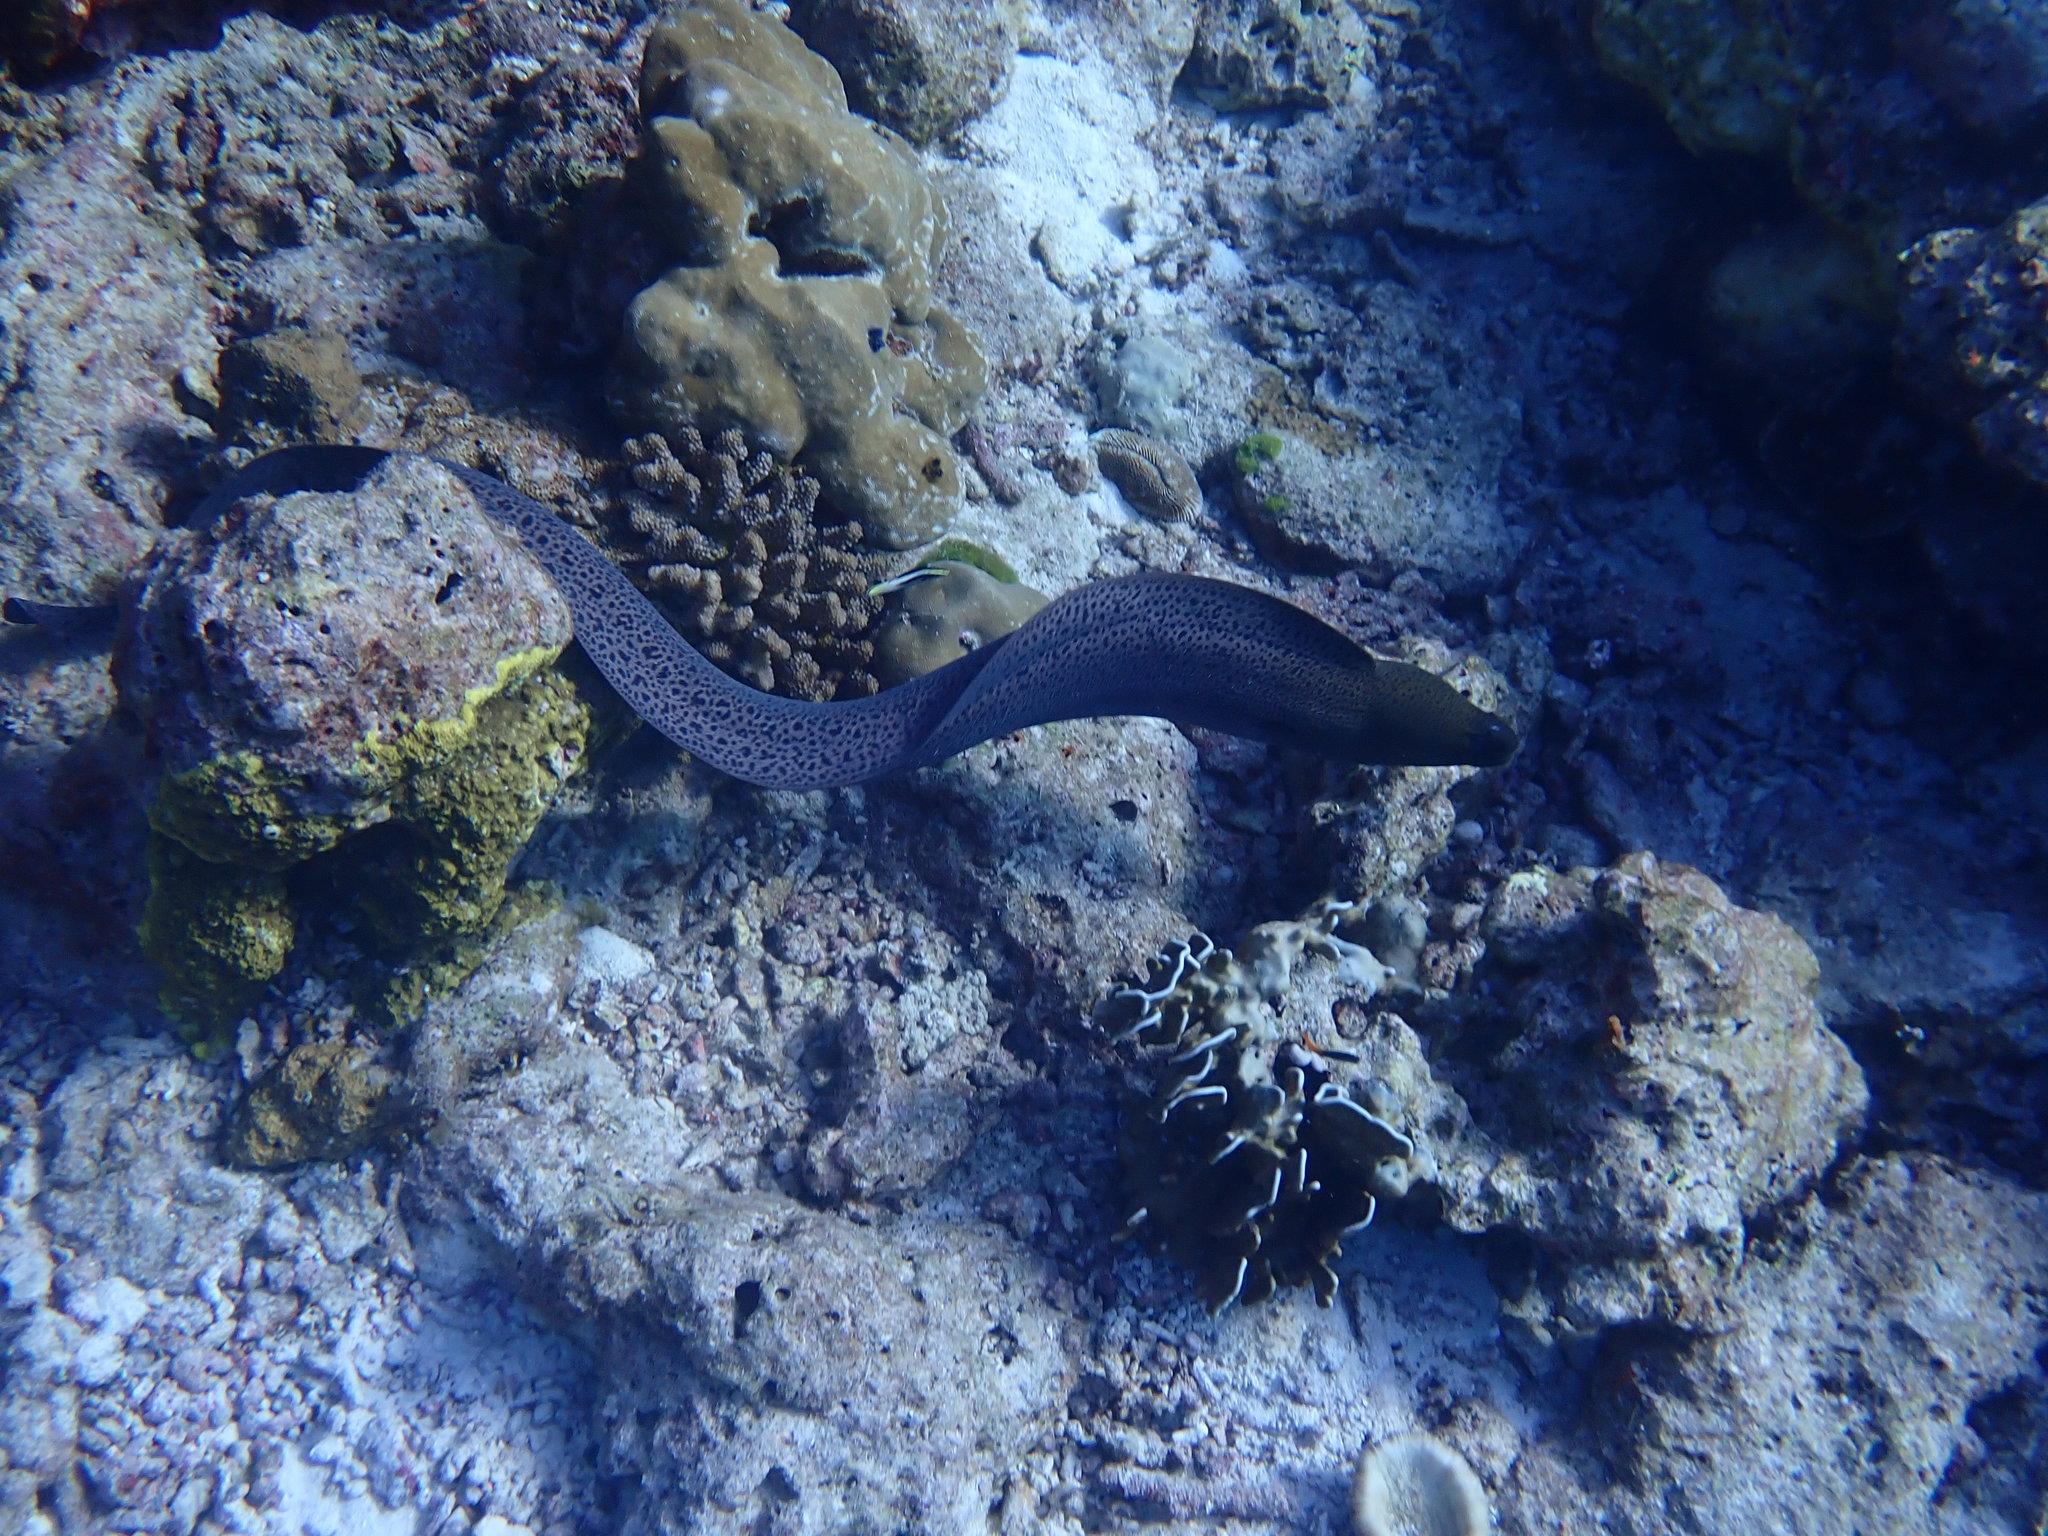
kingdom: Animalia
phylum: Chordata
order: Anguilliformes
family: Muraenidae
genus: Gymnothorax
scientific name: Gymnothorax javanicus
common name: Giant moray
